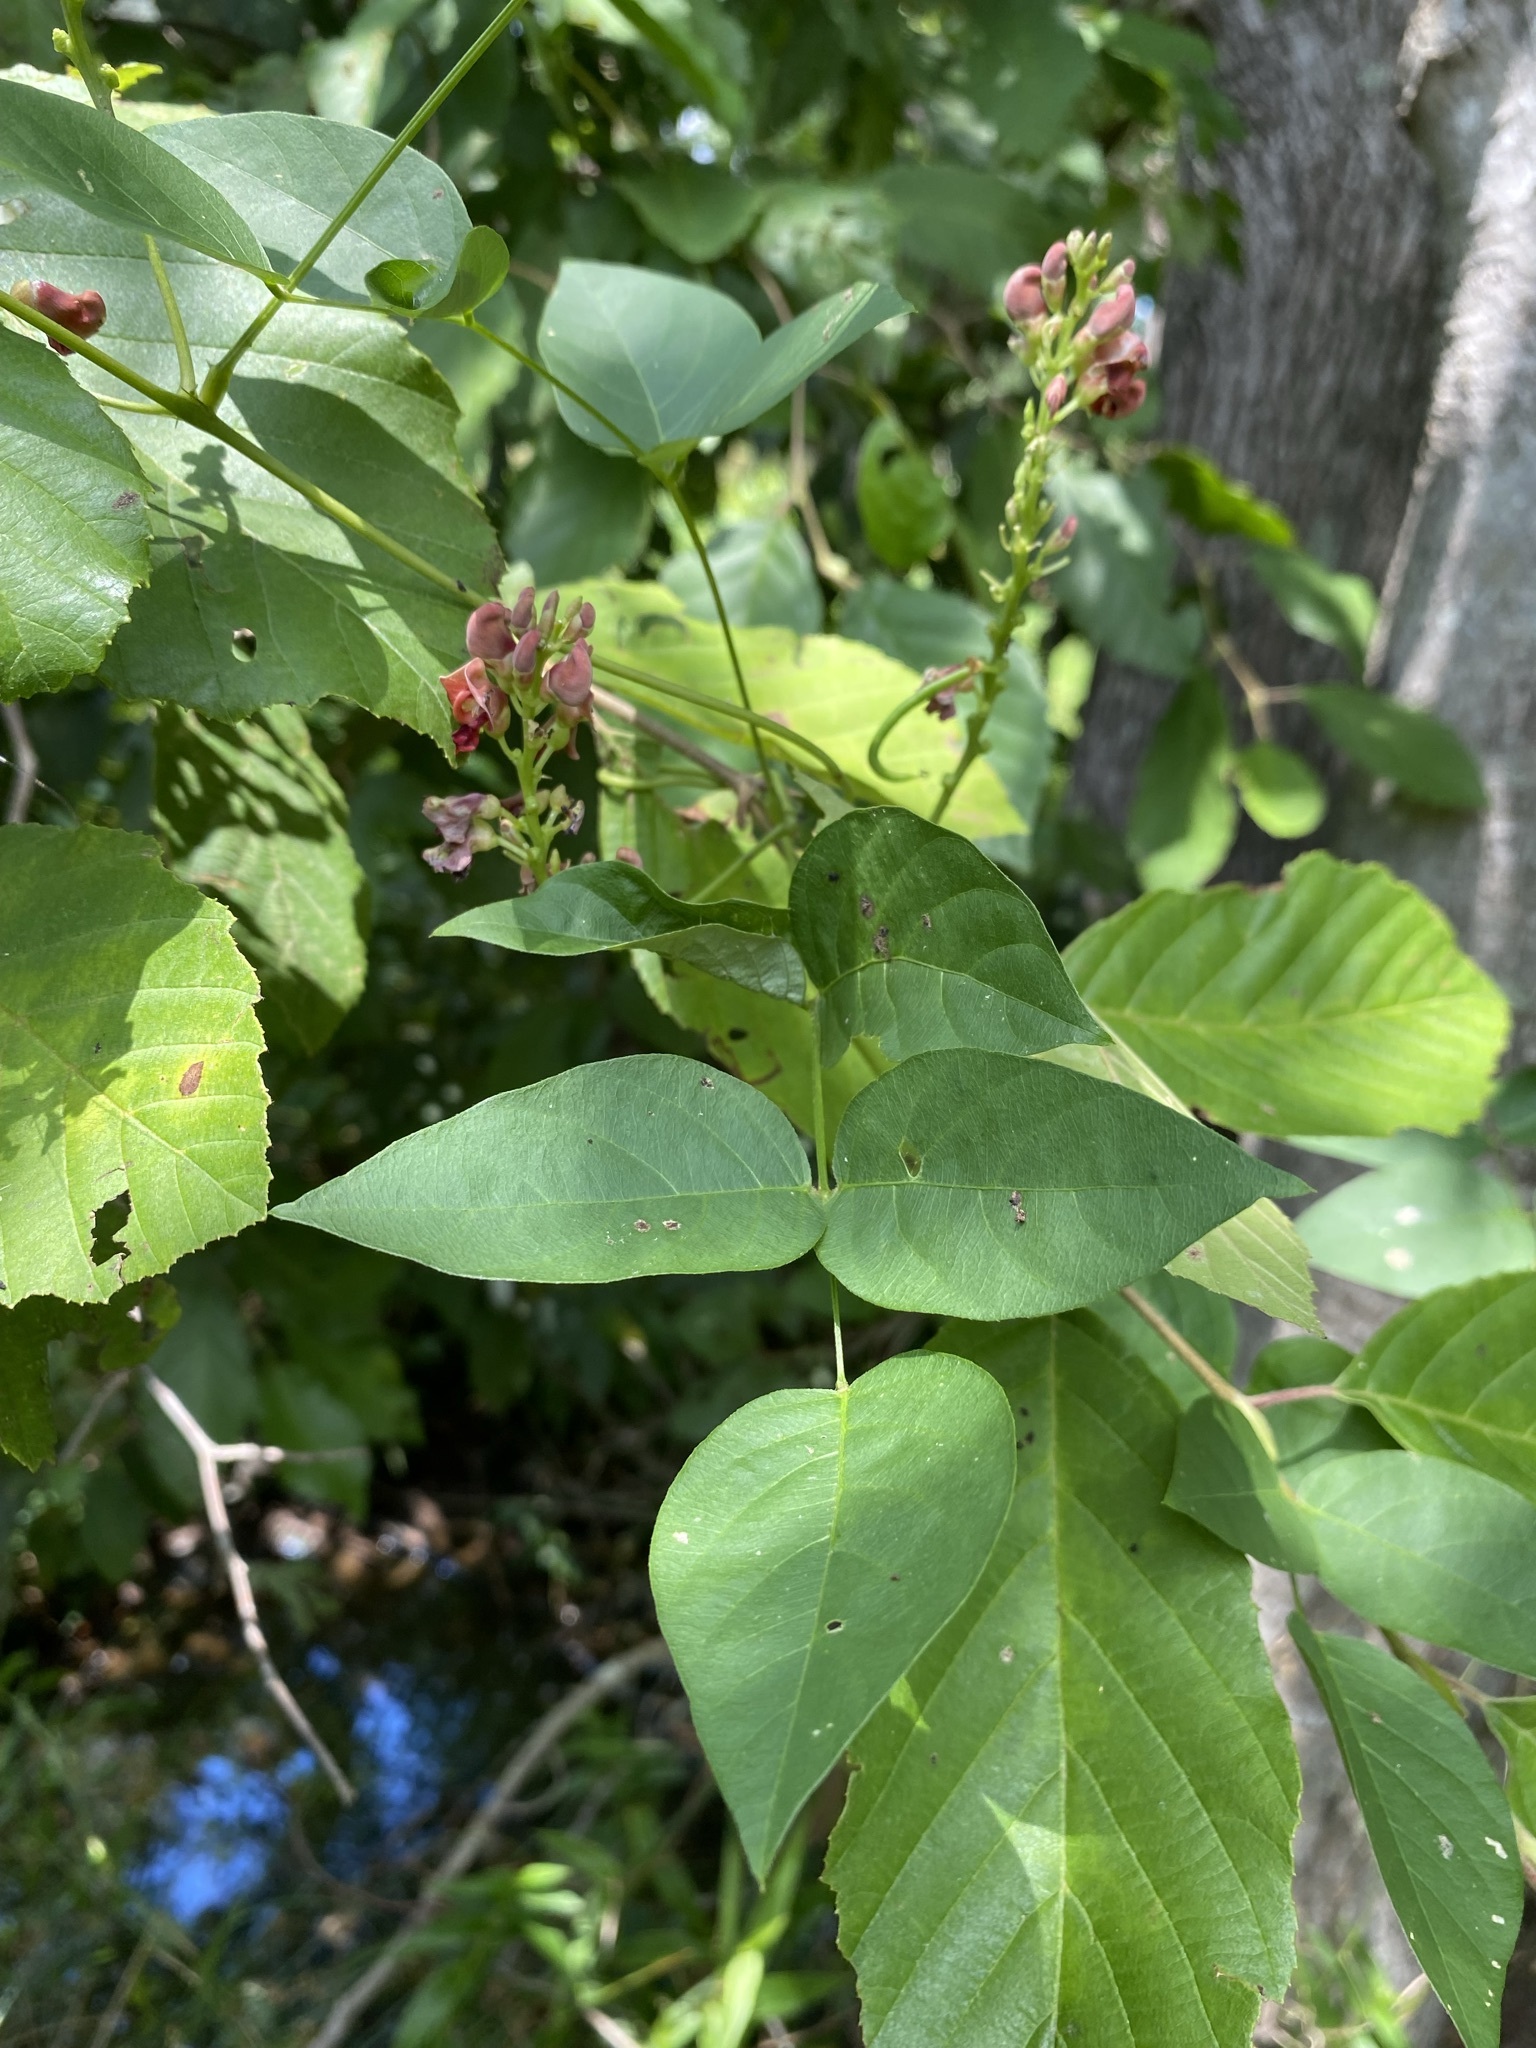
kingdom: Plantae
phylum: Tracheophyta
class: Magnoliopsida
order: Fabales
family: Fabaceae
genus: Apios
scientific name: Apios americana
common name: American potato-bean
